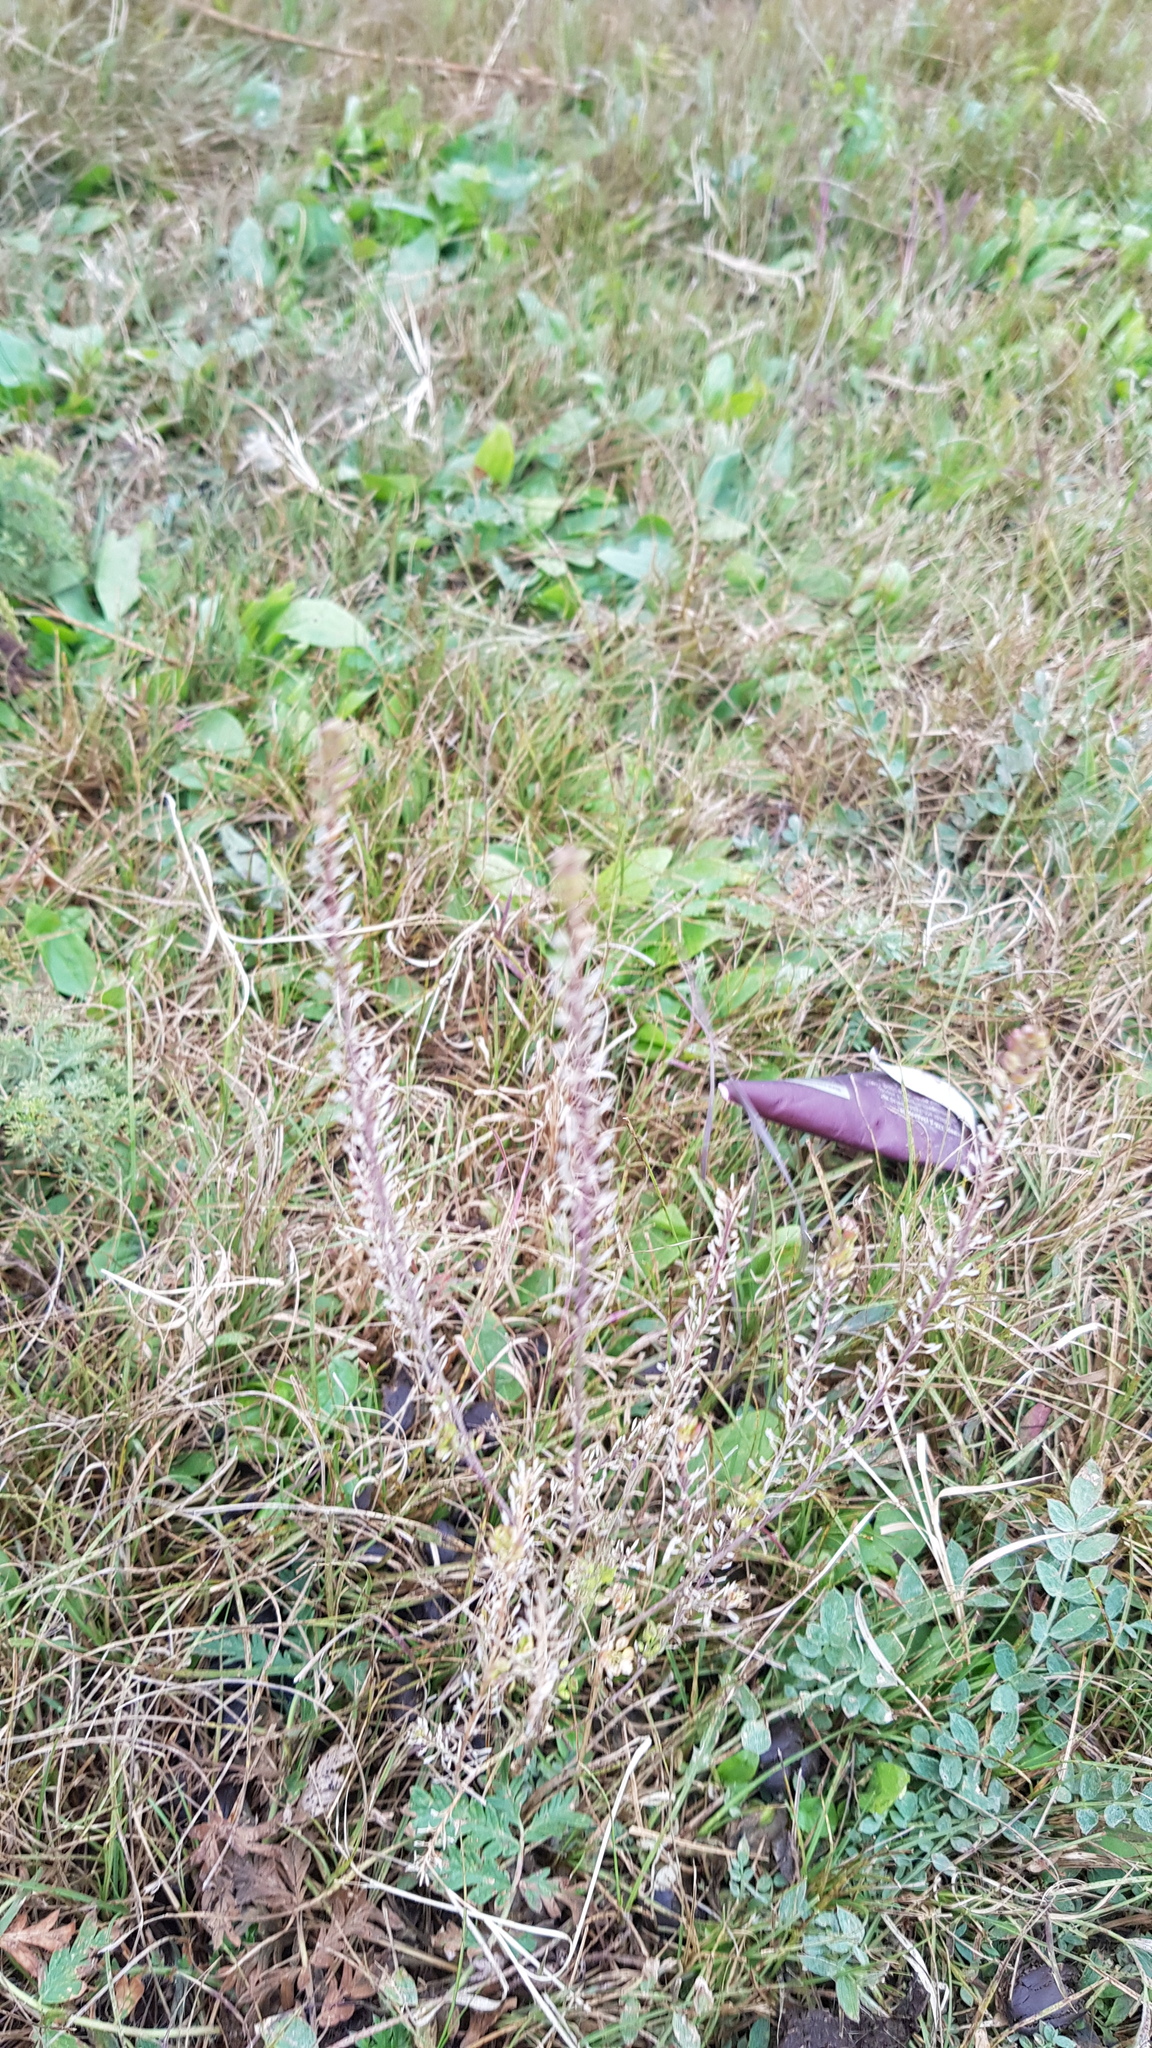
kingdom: Plantae
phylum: Tracheophyta
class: Magnoliopsida
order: Brassicales
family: Brassicaceae
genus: Lepidium
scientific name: Lepidium ruderale
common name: Narrow-leaved pepperwort
